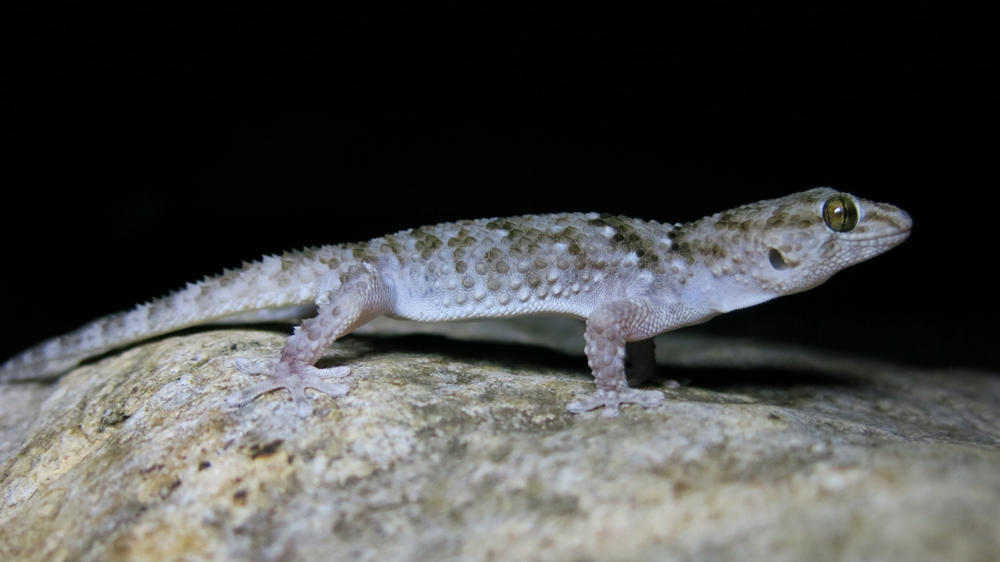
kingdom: Animalia
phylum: Chordata
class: Squamata
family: Gekkonidae
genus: Chondrodactylus
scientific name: Chondrodactylus turneri
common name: Turner’s gecko
